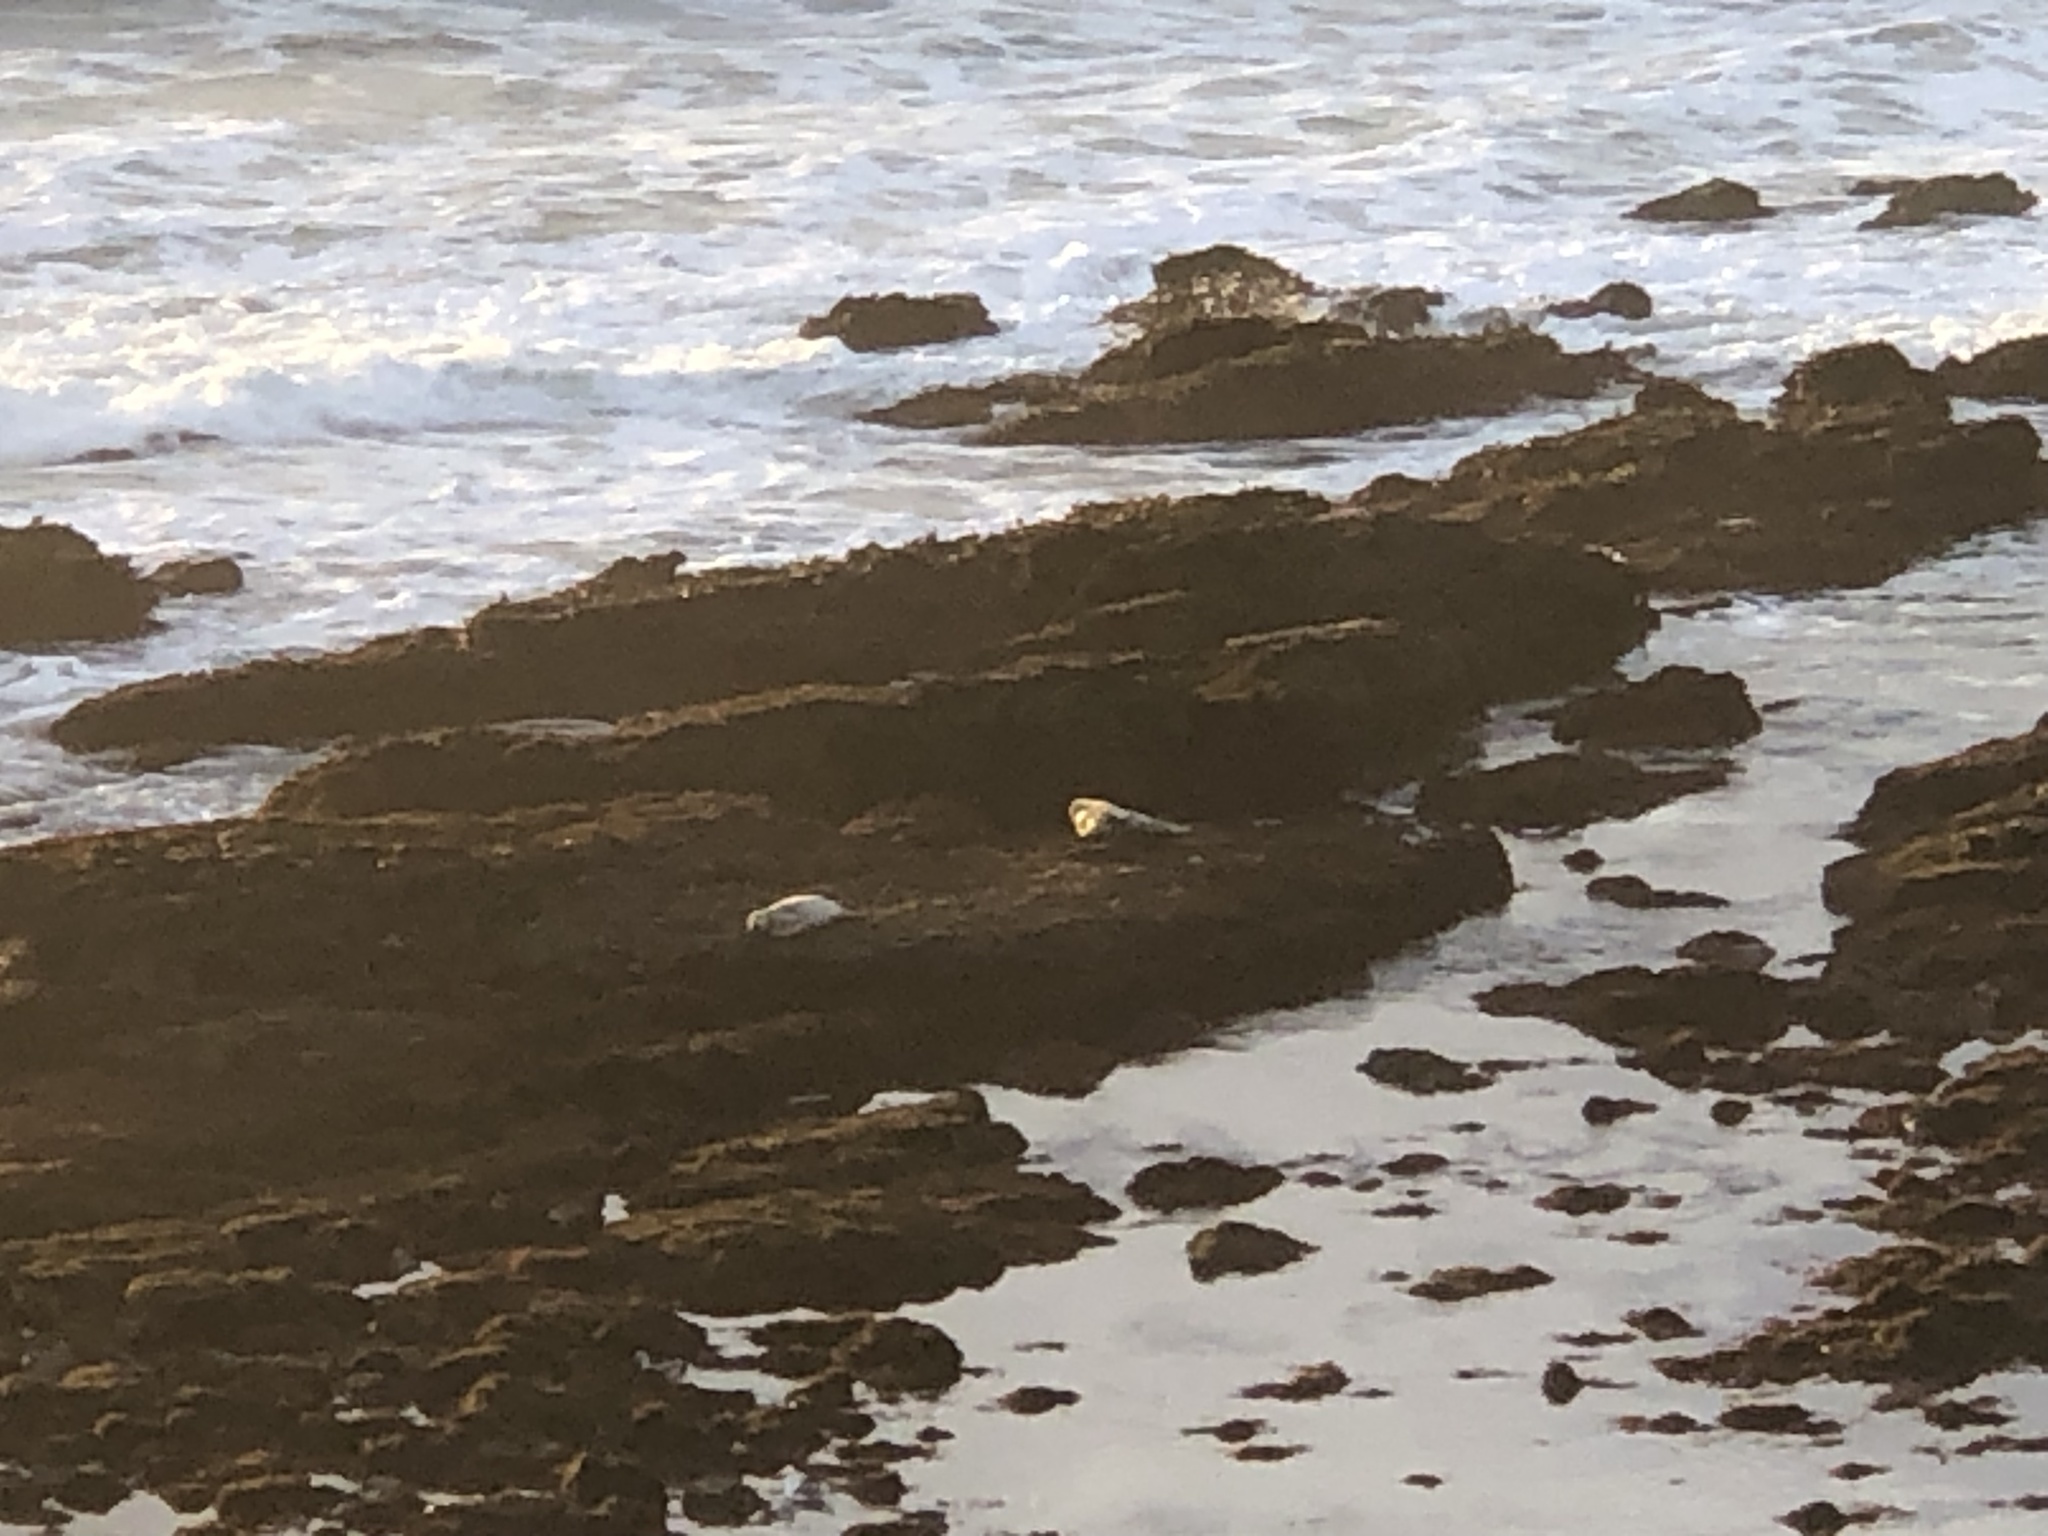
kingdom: Animalia
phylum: Chordata
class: Mammalia
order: Carnivora
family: Phocidae
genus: Phoca
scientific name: Phoca vitulina
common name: Harbor seal
